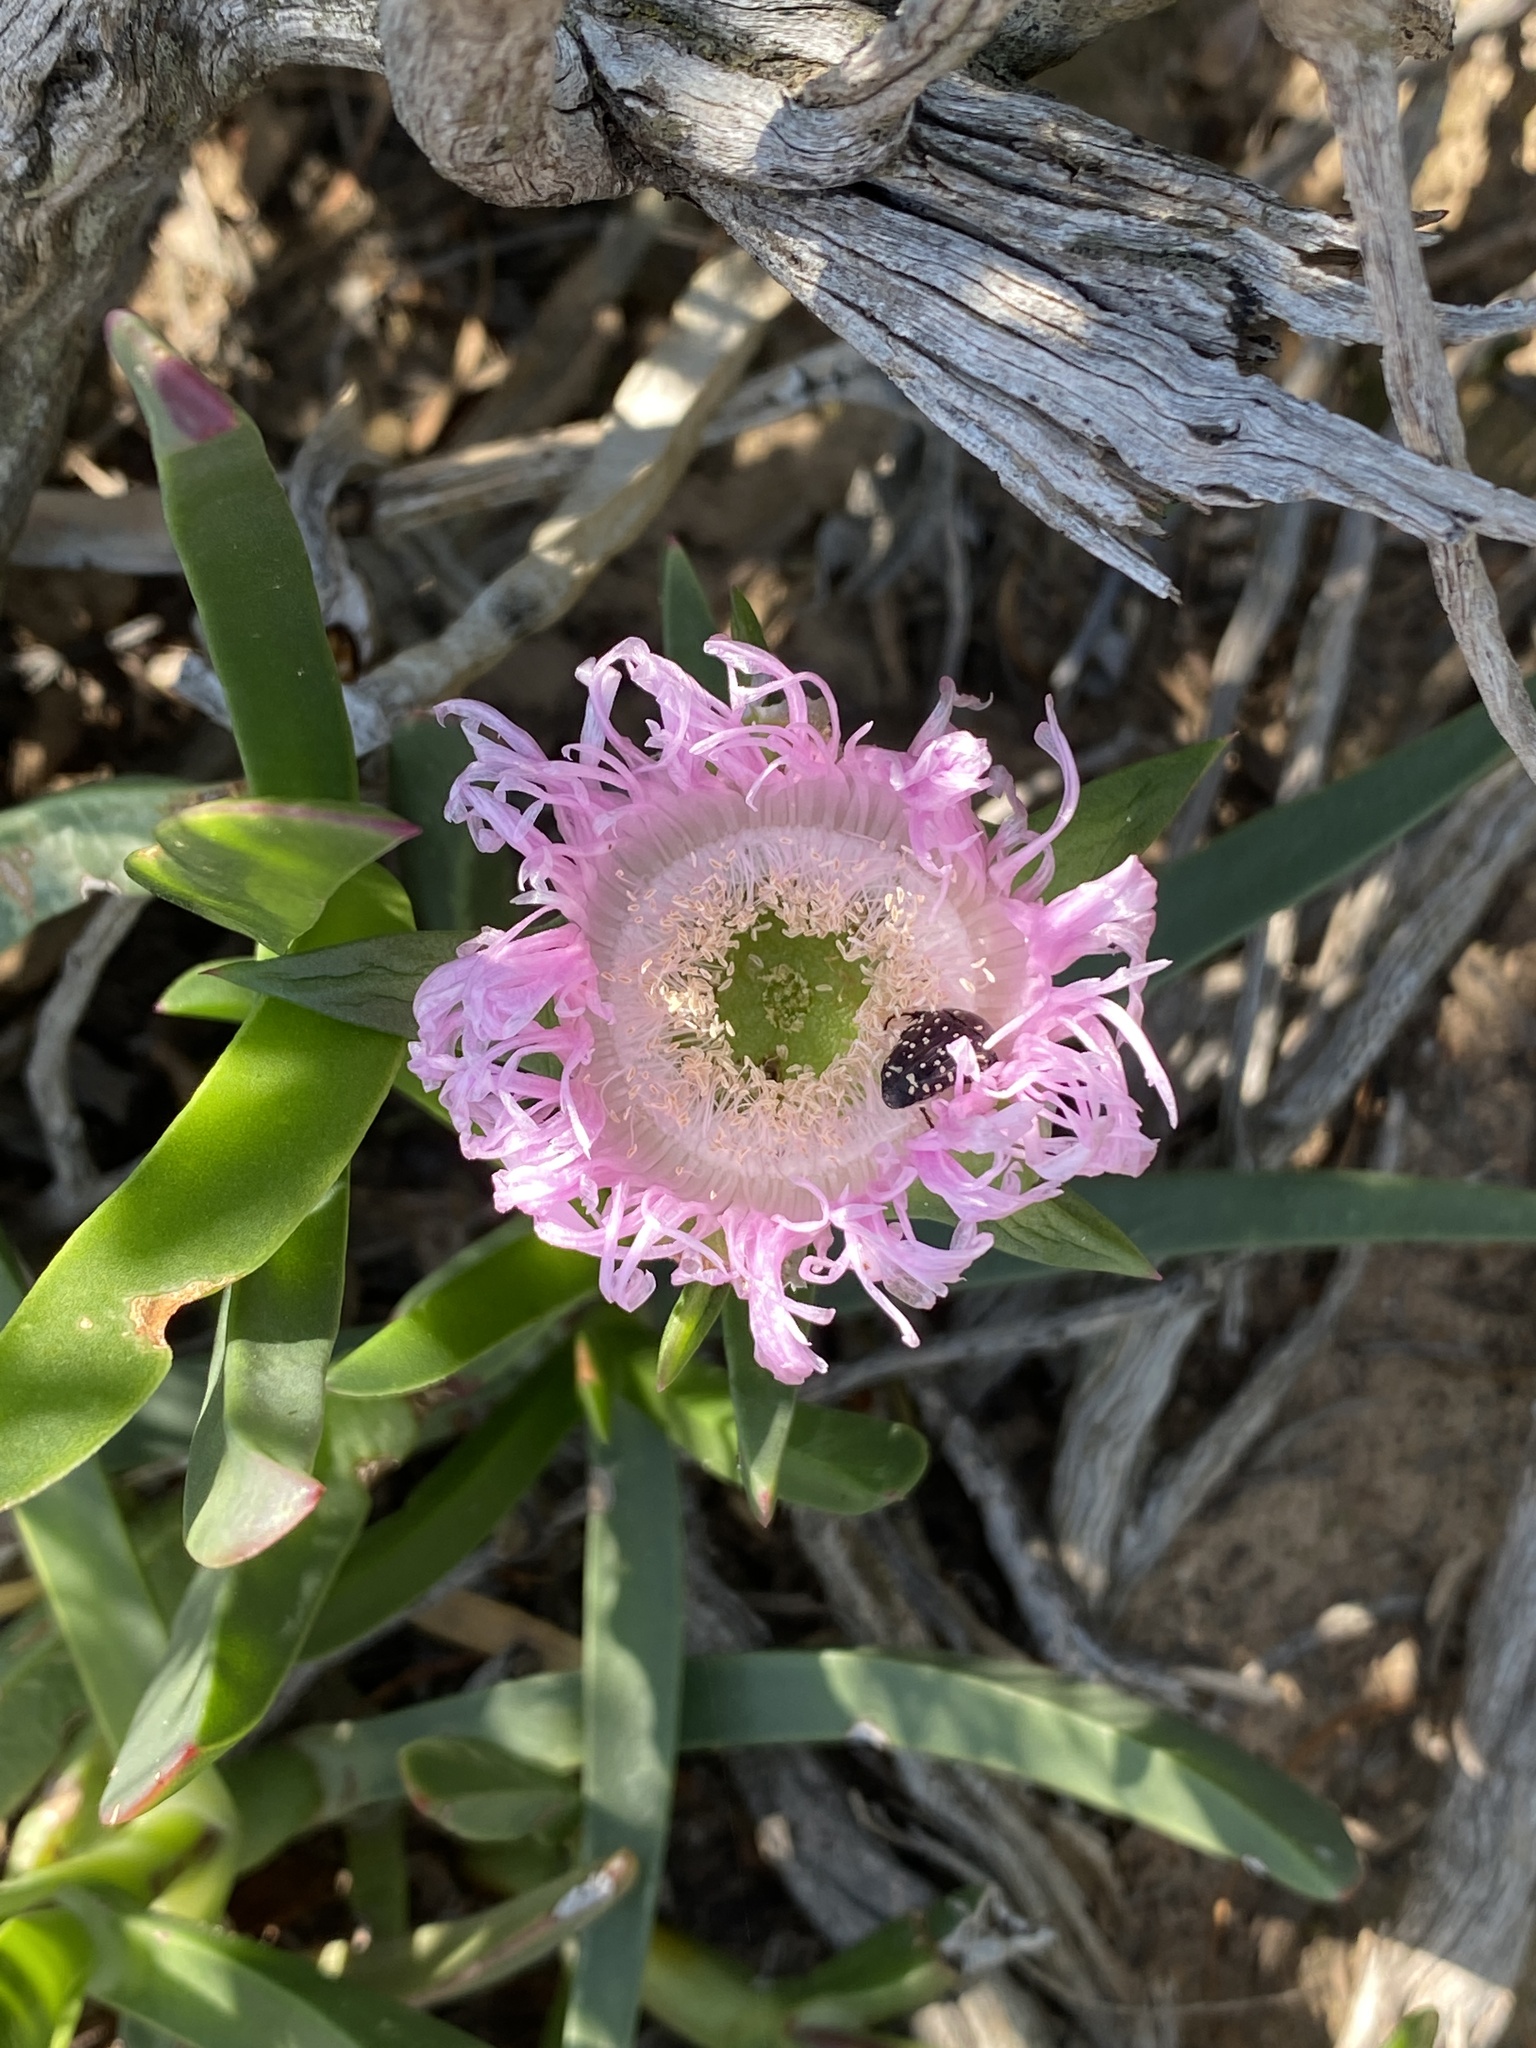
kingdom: Plantae
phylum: Tracheophyta
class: Magnoliopsida
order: Caryophyllales
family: Aizoaceae
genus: Carpobrotus
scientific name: Carpobrotus deliciosus
